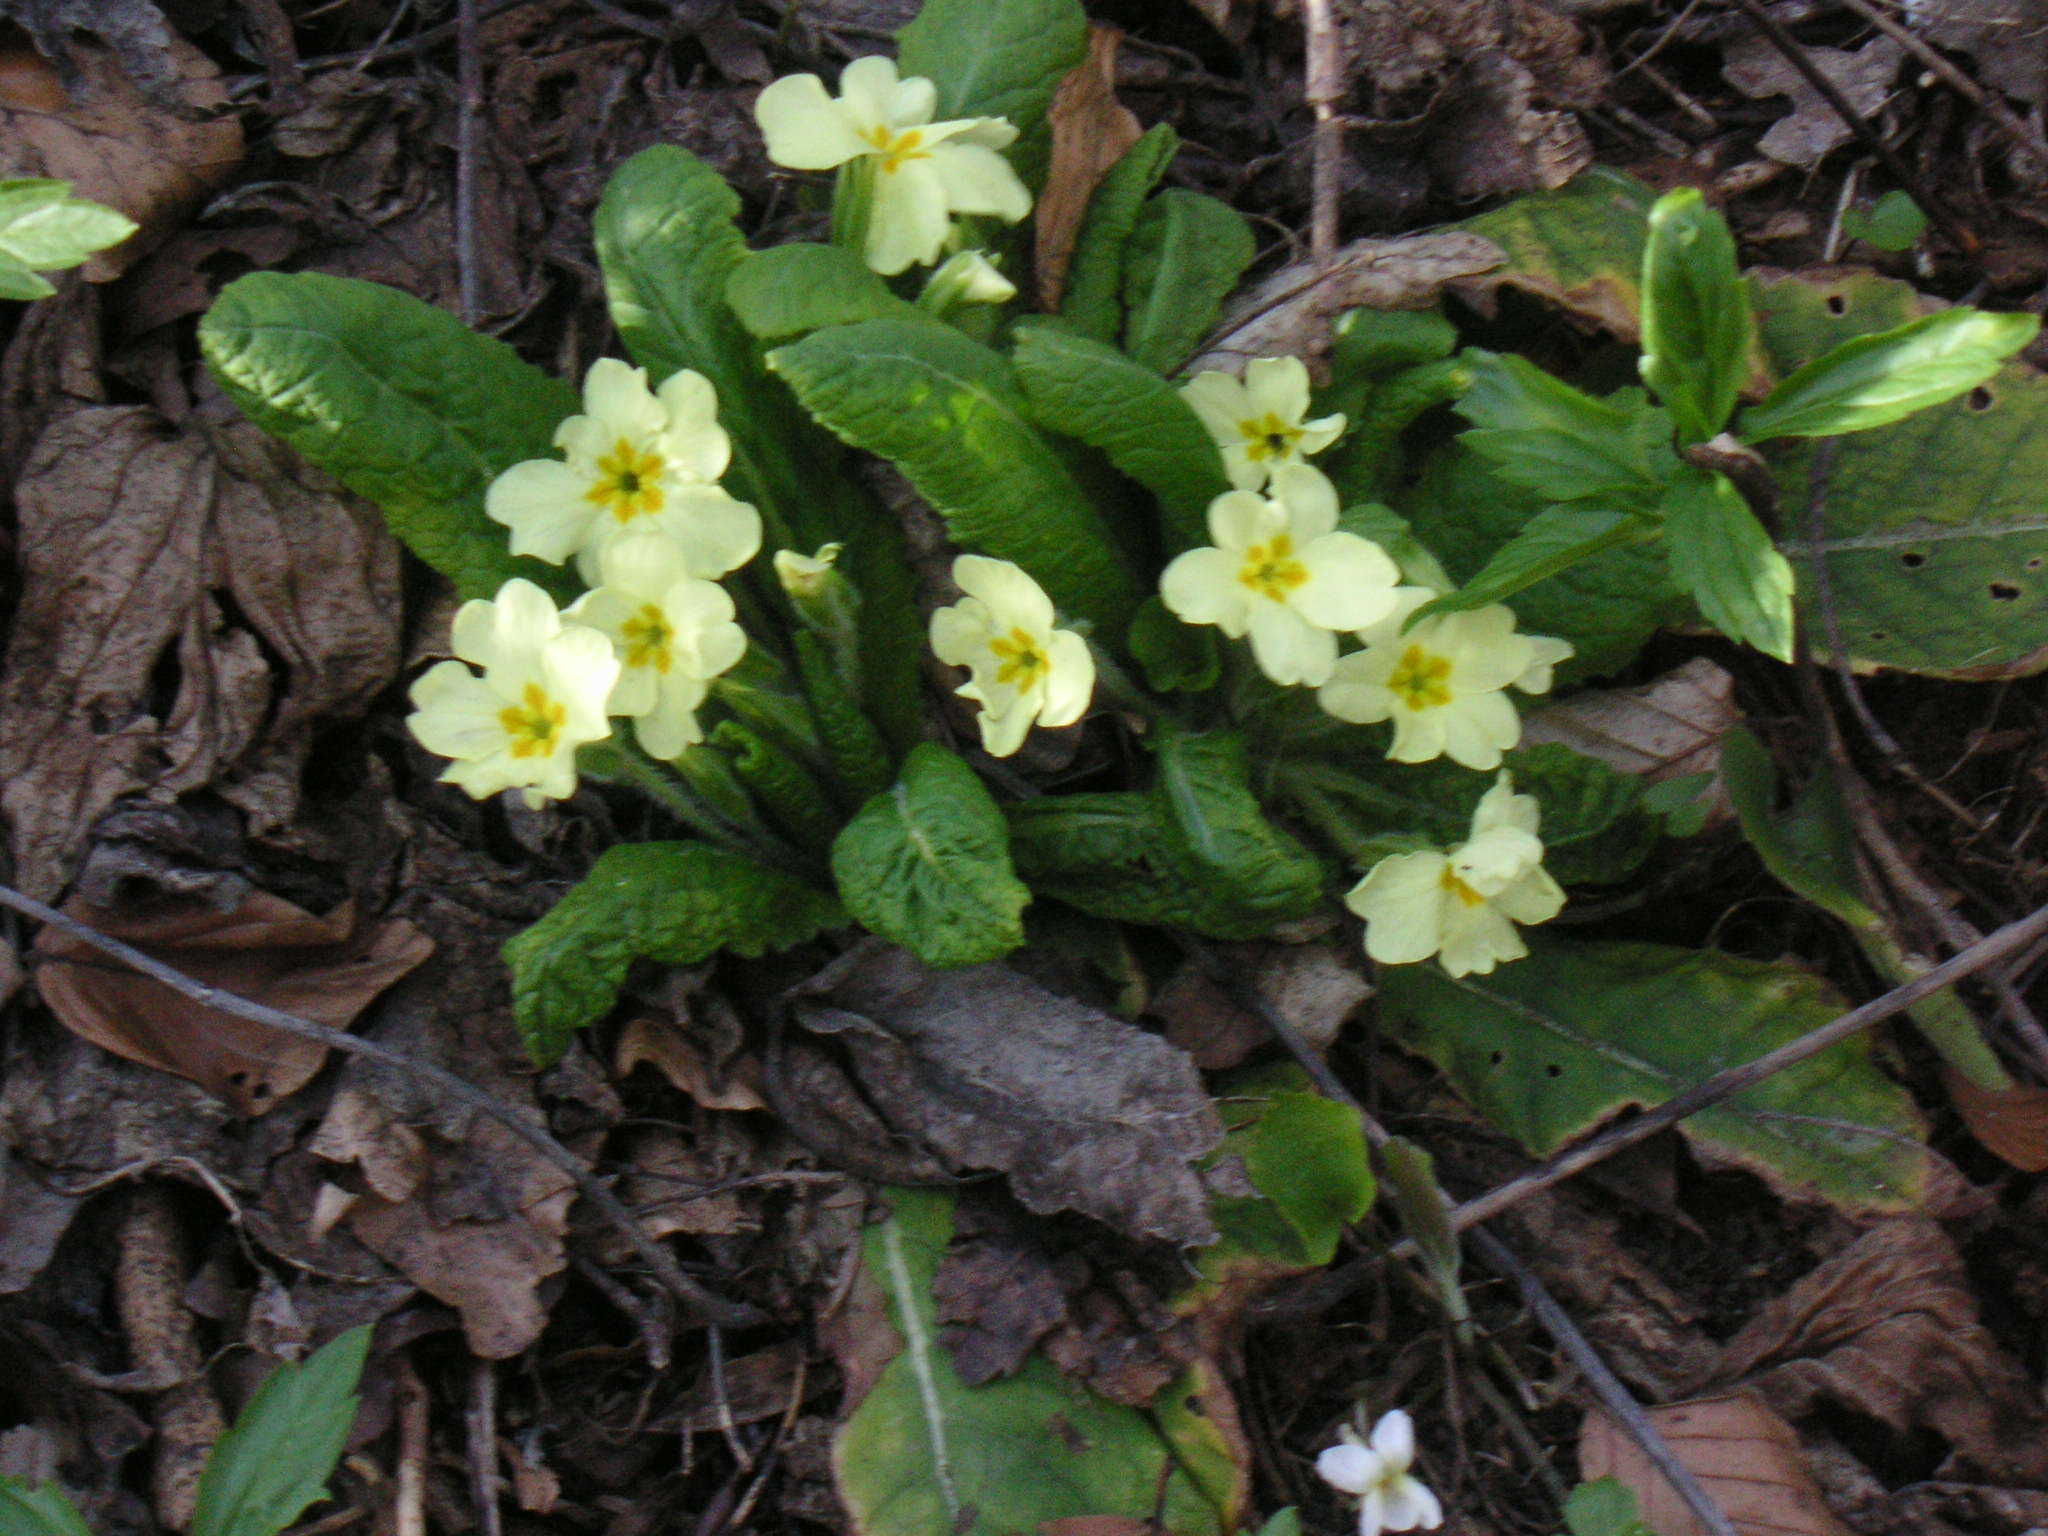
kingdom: Plantae
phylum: Tracheophyta
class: Magnoliopsida
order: Ericales
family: Primulaceae
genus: Primula
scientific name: Primula vulgaris
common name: Primrose
